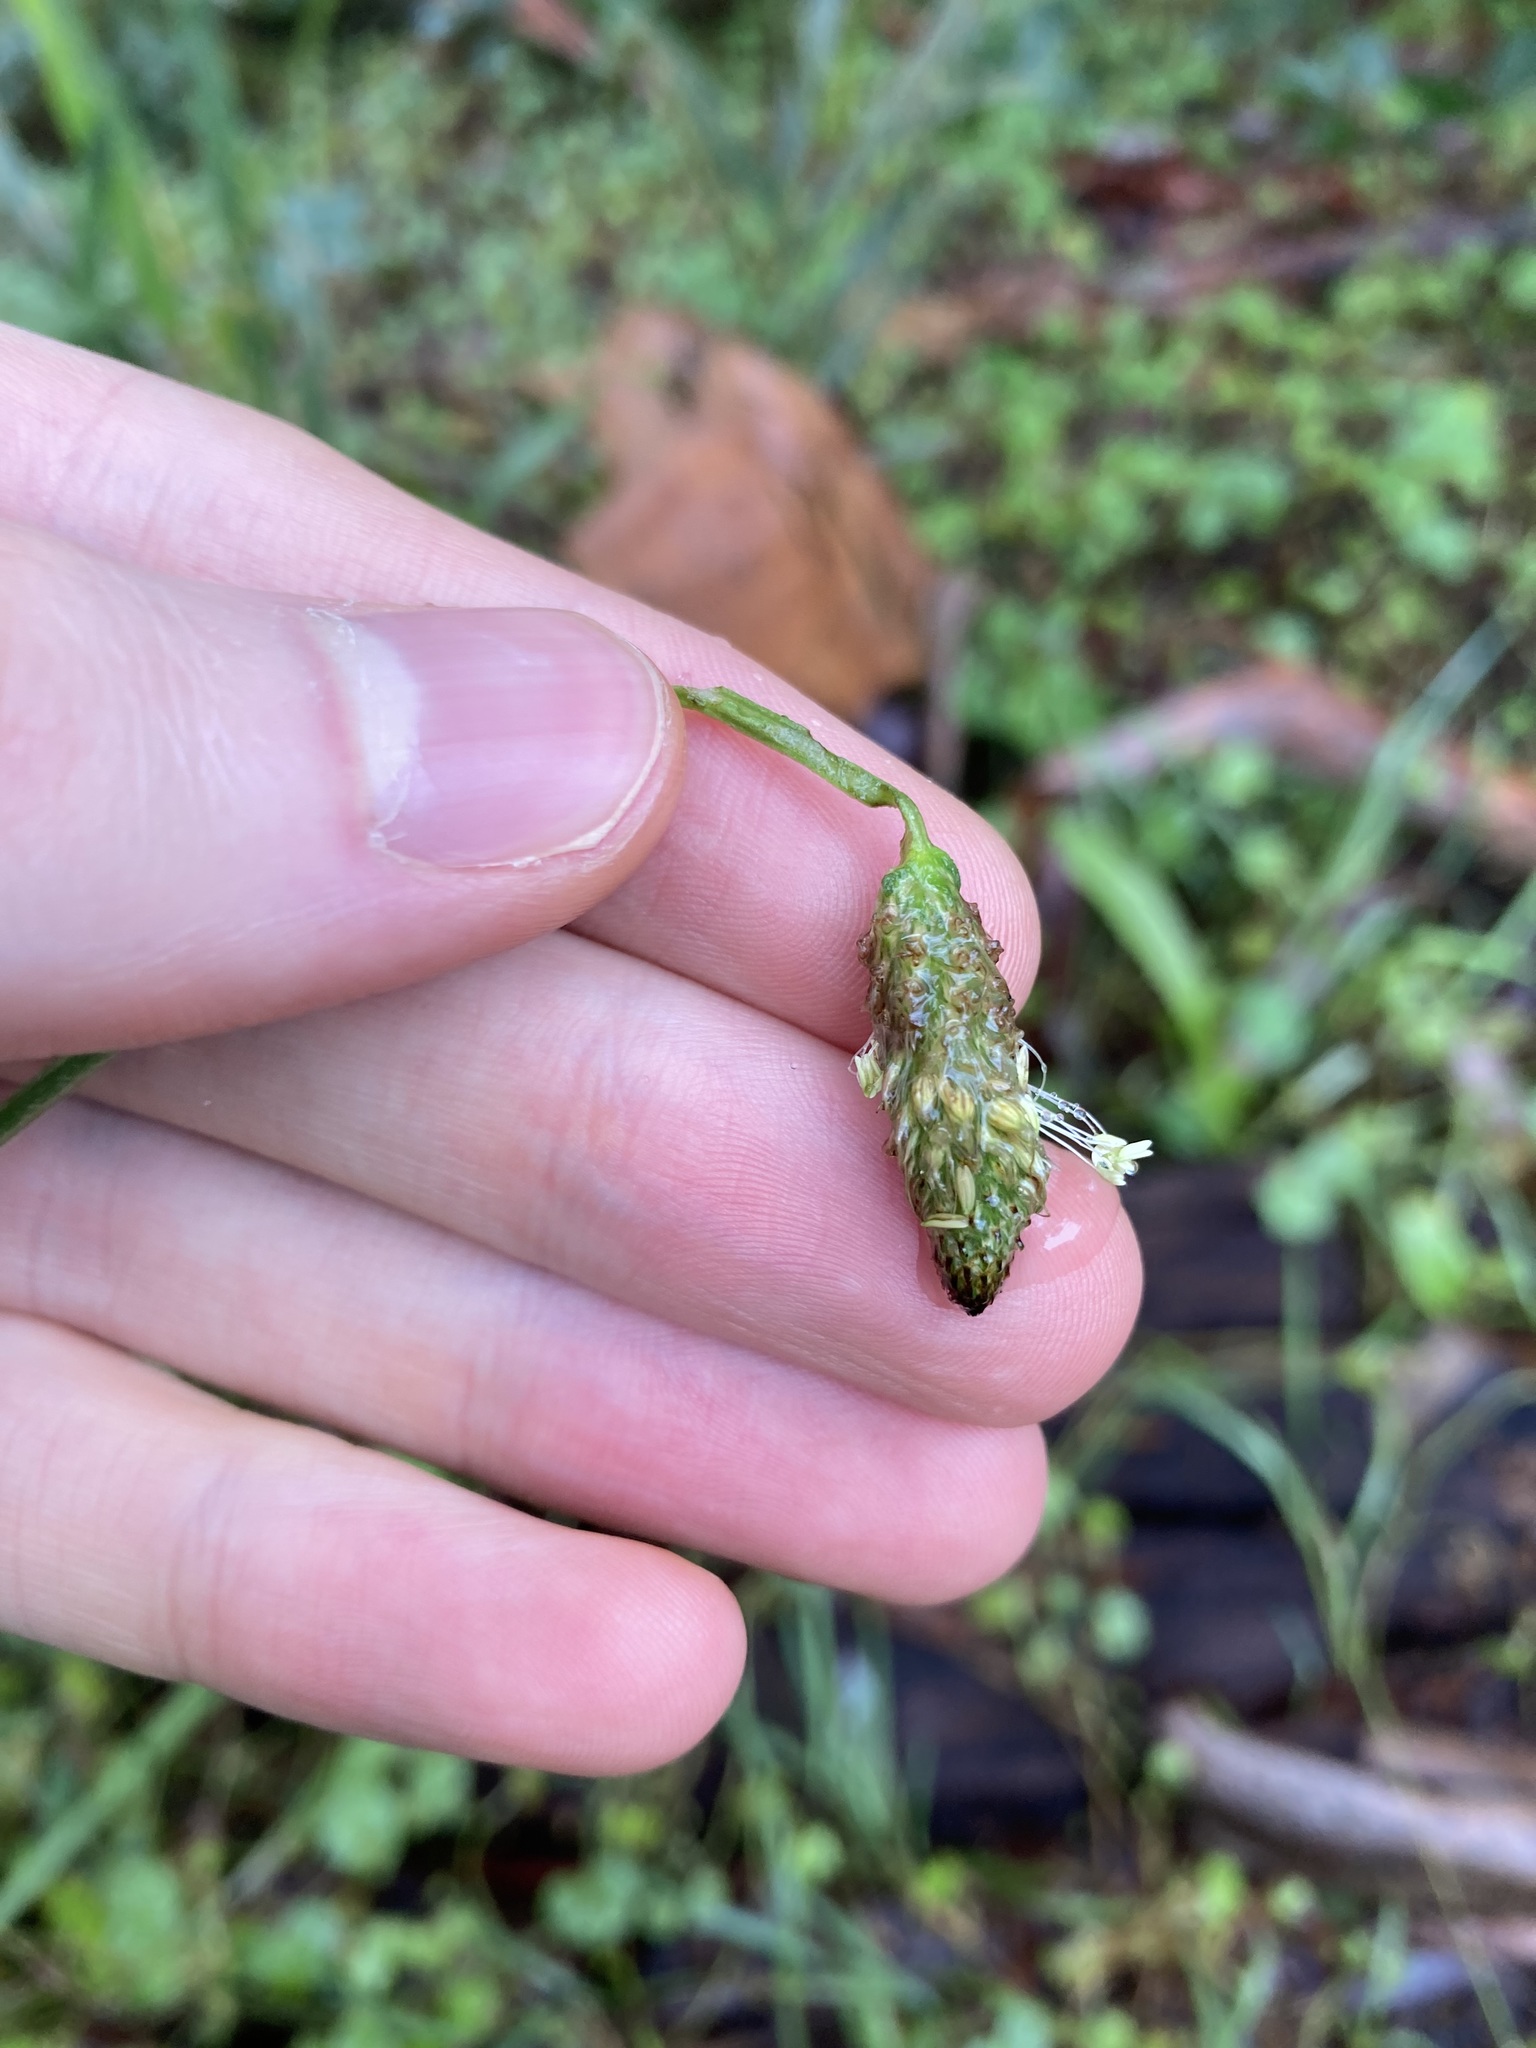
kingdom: Plantae
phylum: Tracheophyta
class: Magnoliopsida
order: Lamiales
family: Plantaginaceae
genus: Plantago
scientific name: Plantago lanceolata
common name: Ribwort plantain
